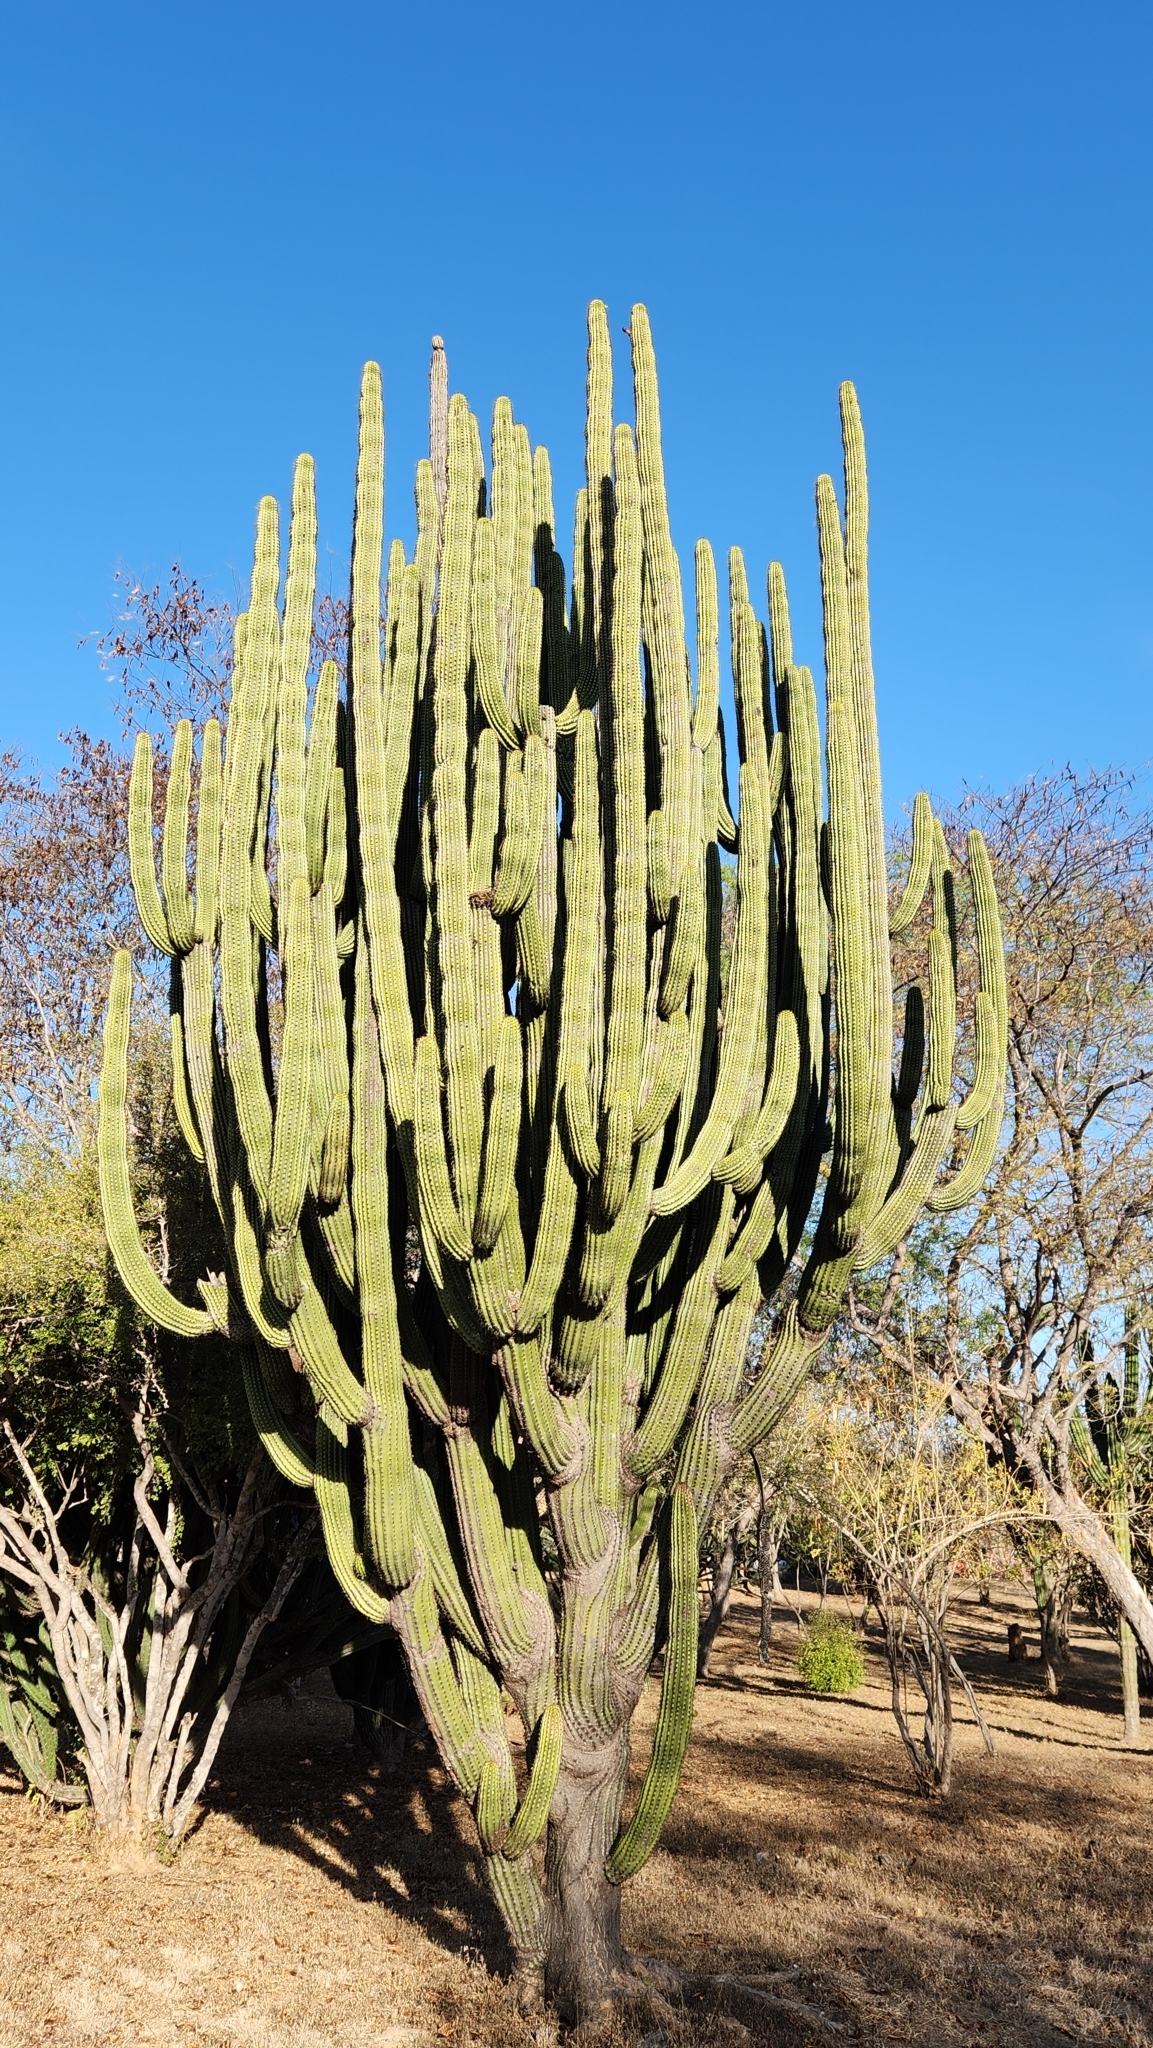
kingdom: Plantae
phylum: Tracheophyta
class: Magnoliopsida
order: Caryophyllales
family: Cactaceae
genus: Stenocereus
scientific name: Stenocereus thurberi
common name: Organ pipe cactus
